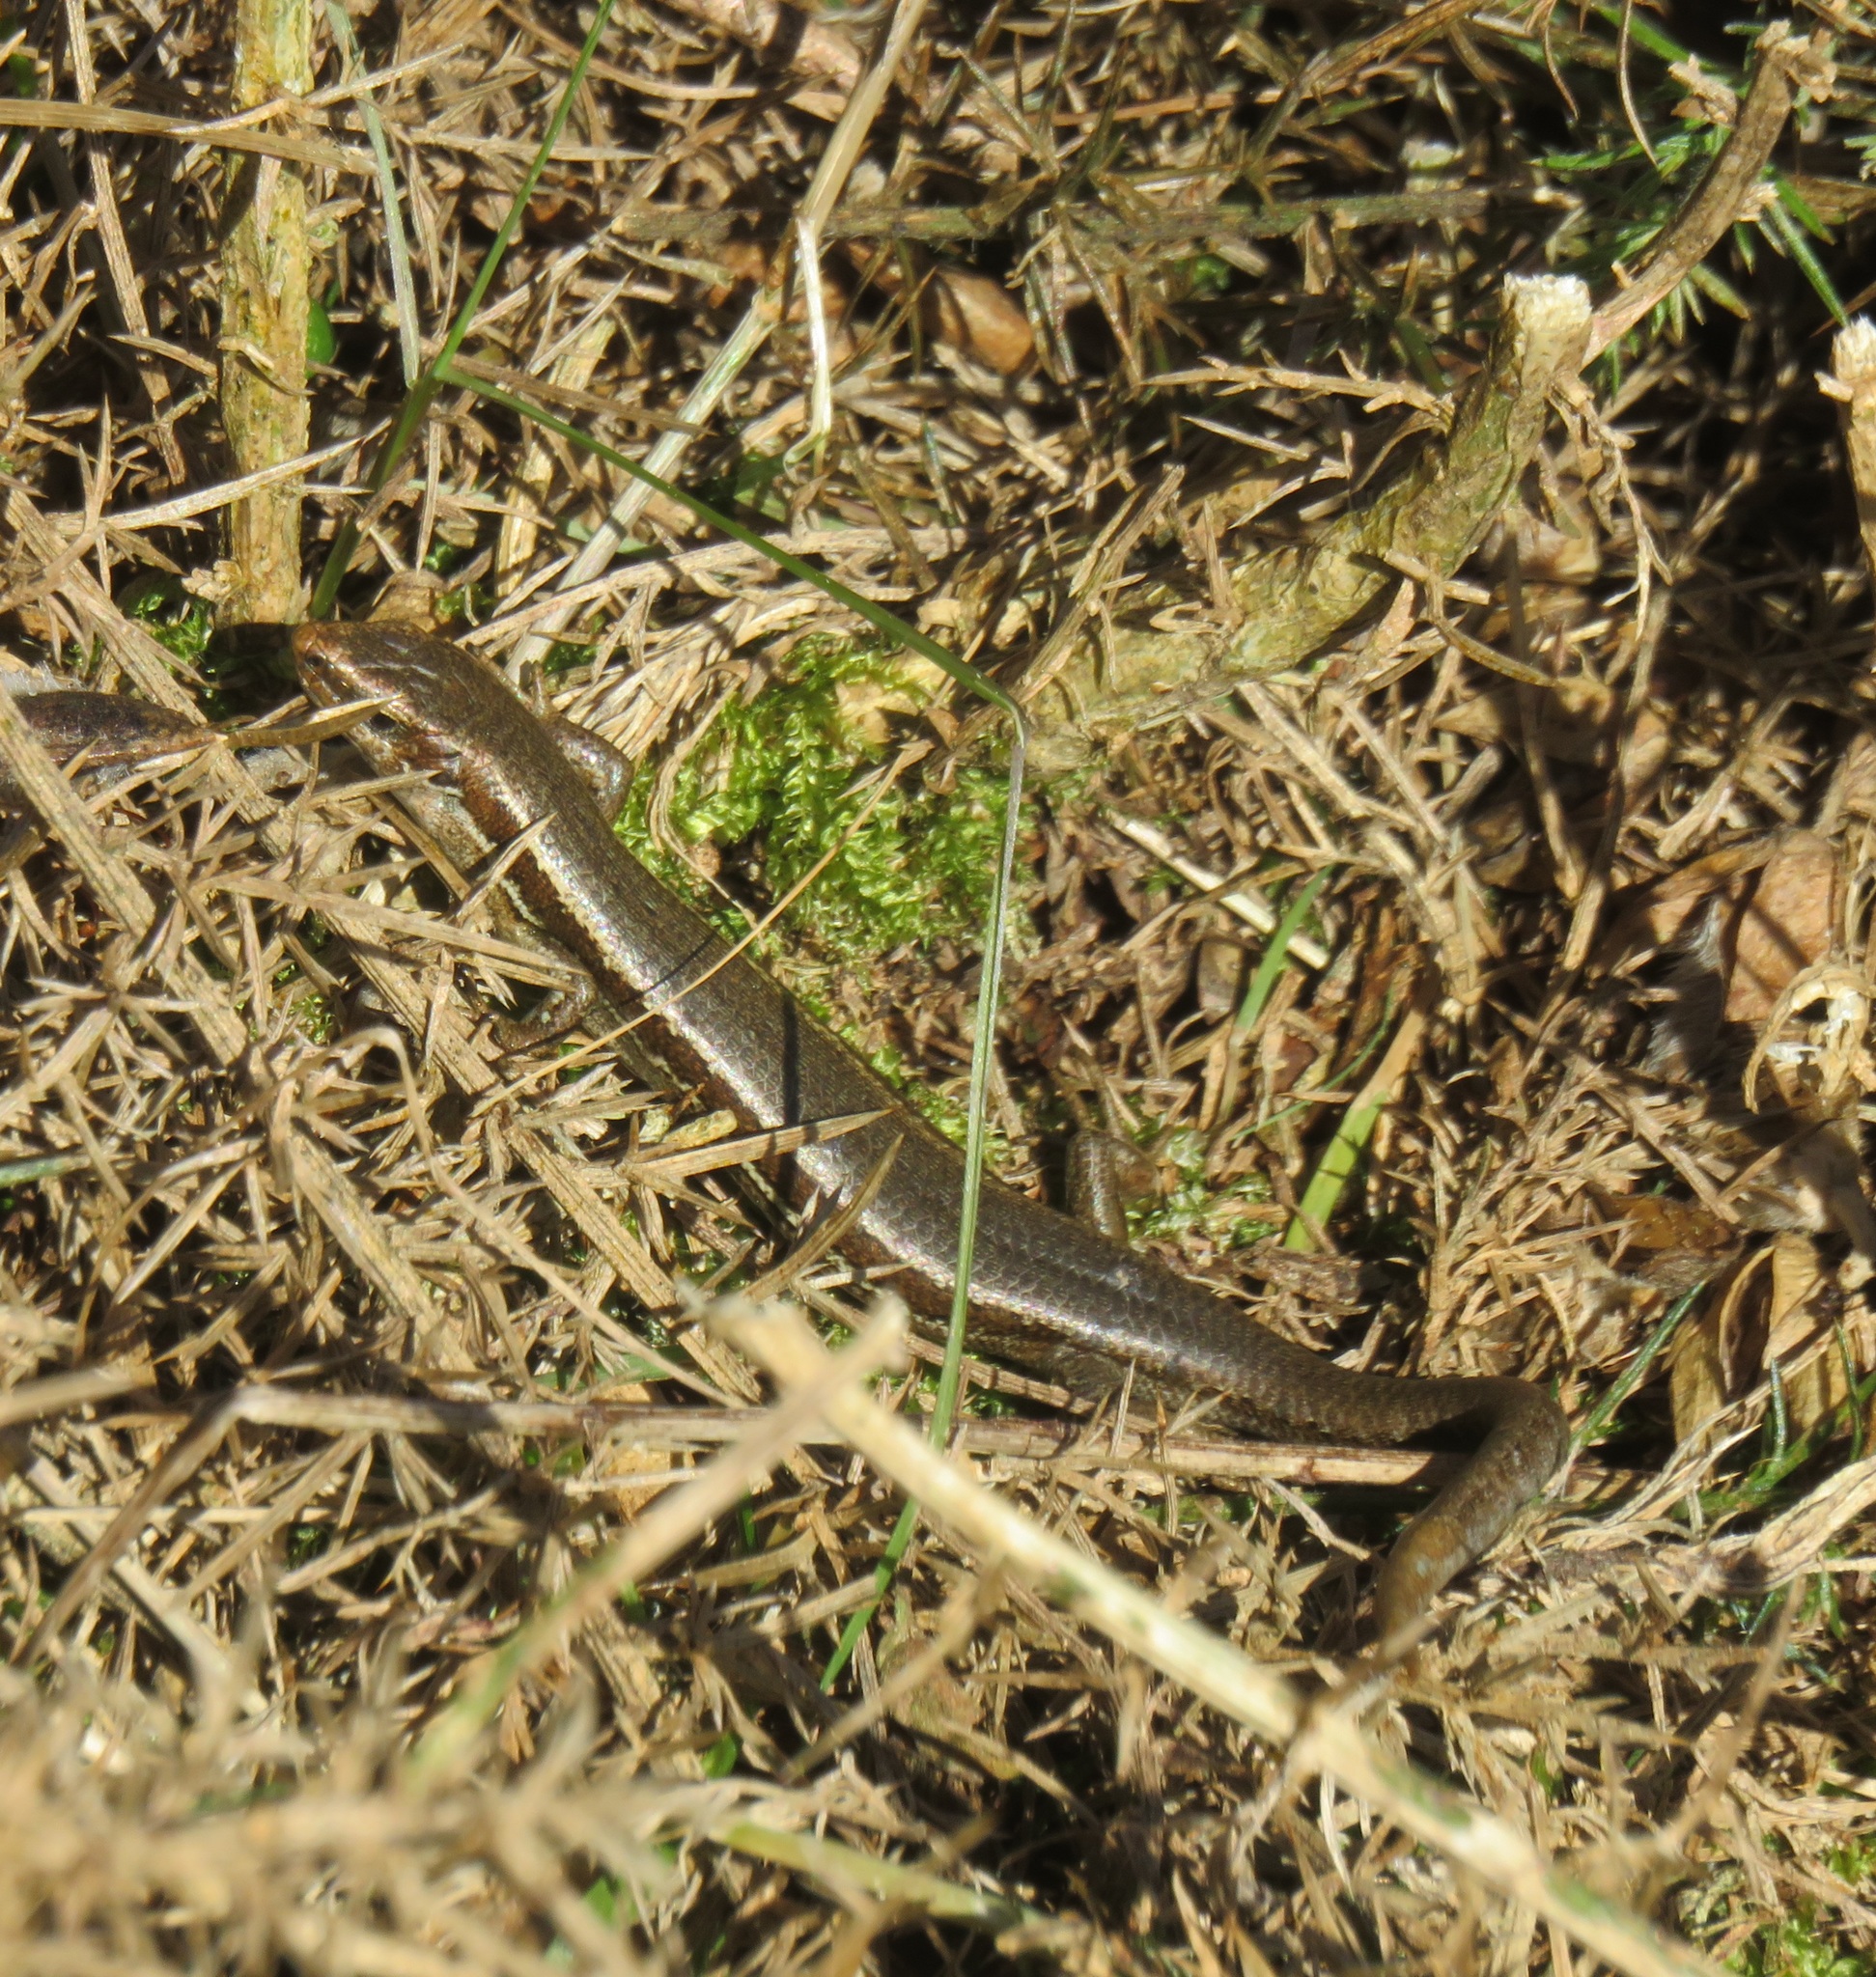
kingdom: Animalia
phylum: Chordata
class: Squamata
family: Scincidae
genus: Oligosoma
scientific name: Oligosoma polychroma
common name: Common new zealand skink
